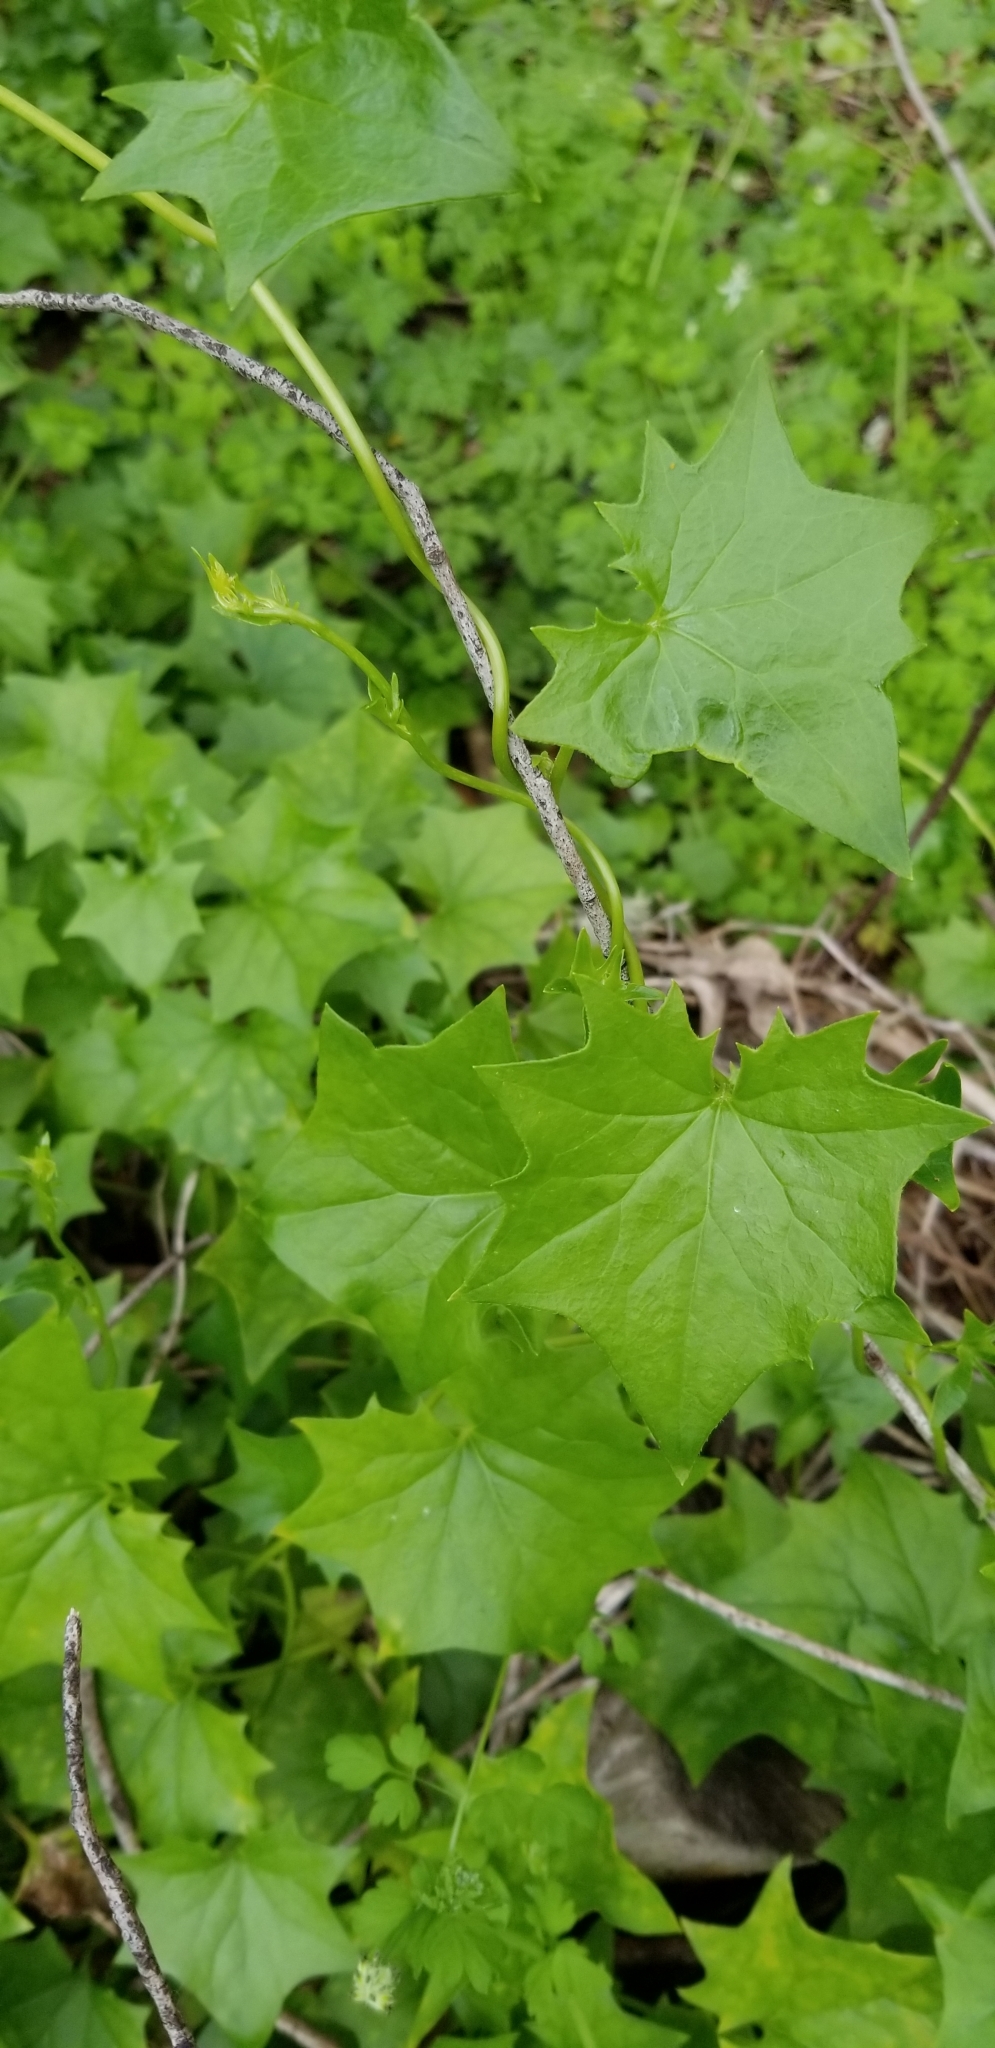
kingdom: Plantae
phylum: Tracheophyta
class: Magnoliopsida
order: Asterales
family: Asteraceae
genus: Delairea
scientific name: Delairea odorata
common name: Cape-ivy
